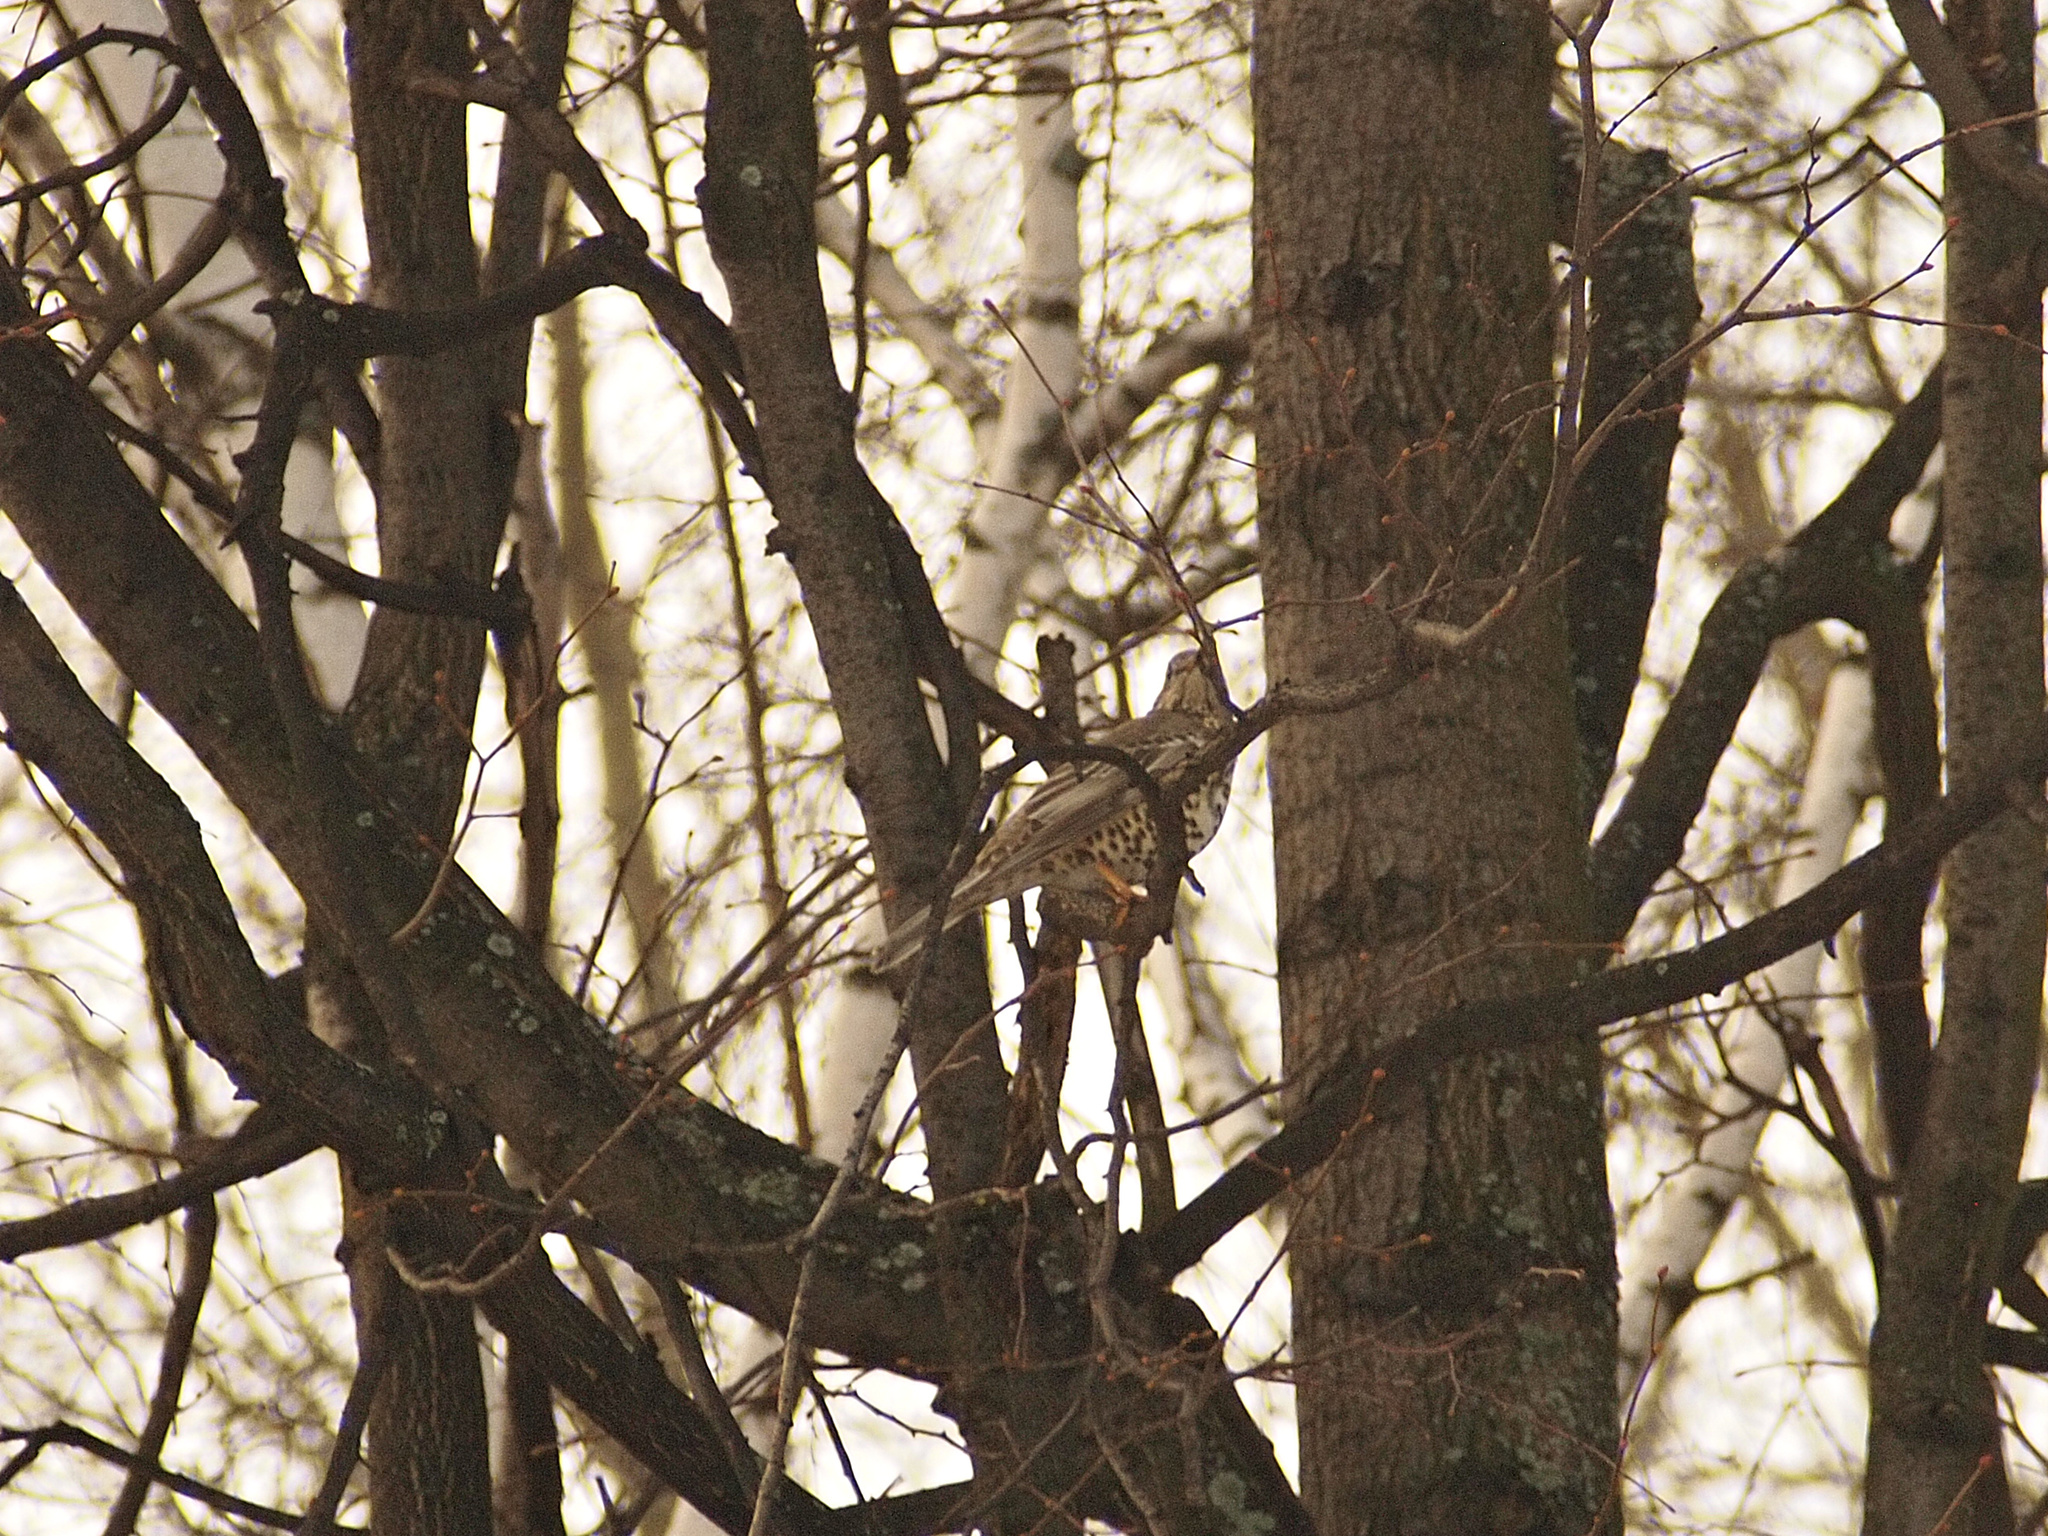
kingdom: Animalia
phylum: Chordata
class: Aves
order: Passeriformes
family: Turdidae
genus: Turdus
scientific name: Turdus viscivorus
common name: Mistle thrush
